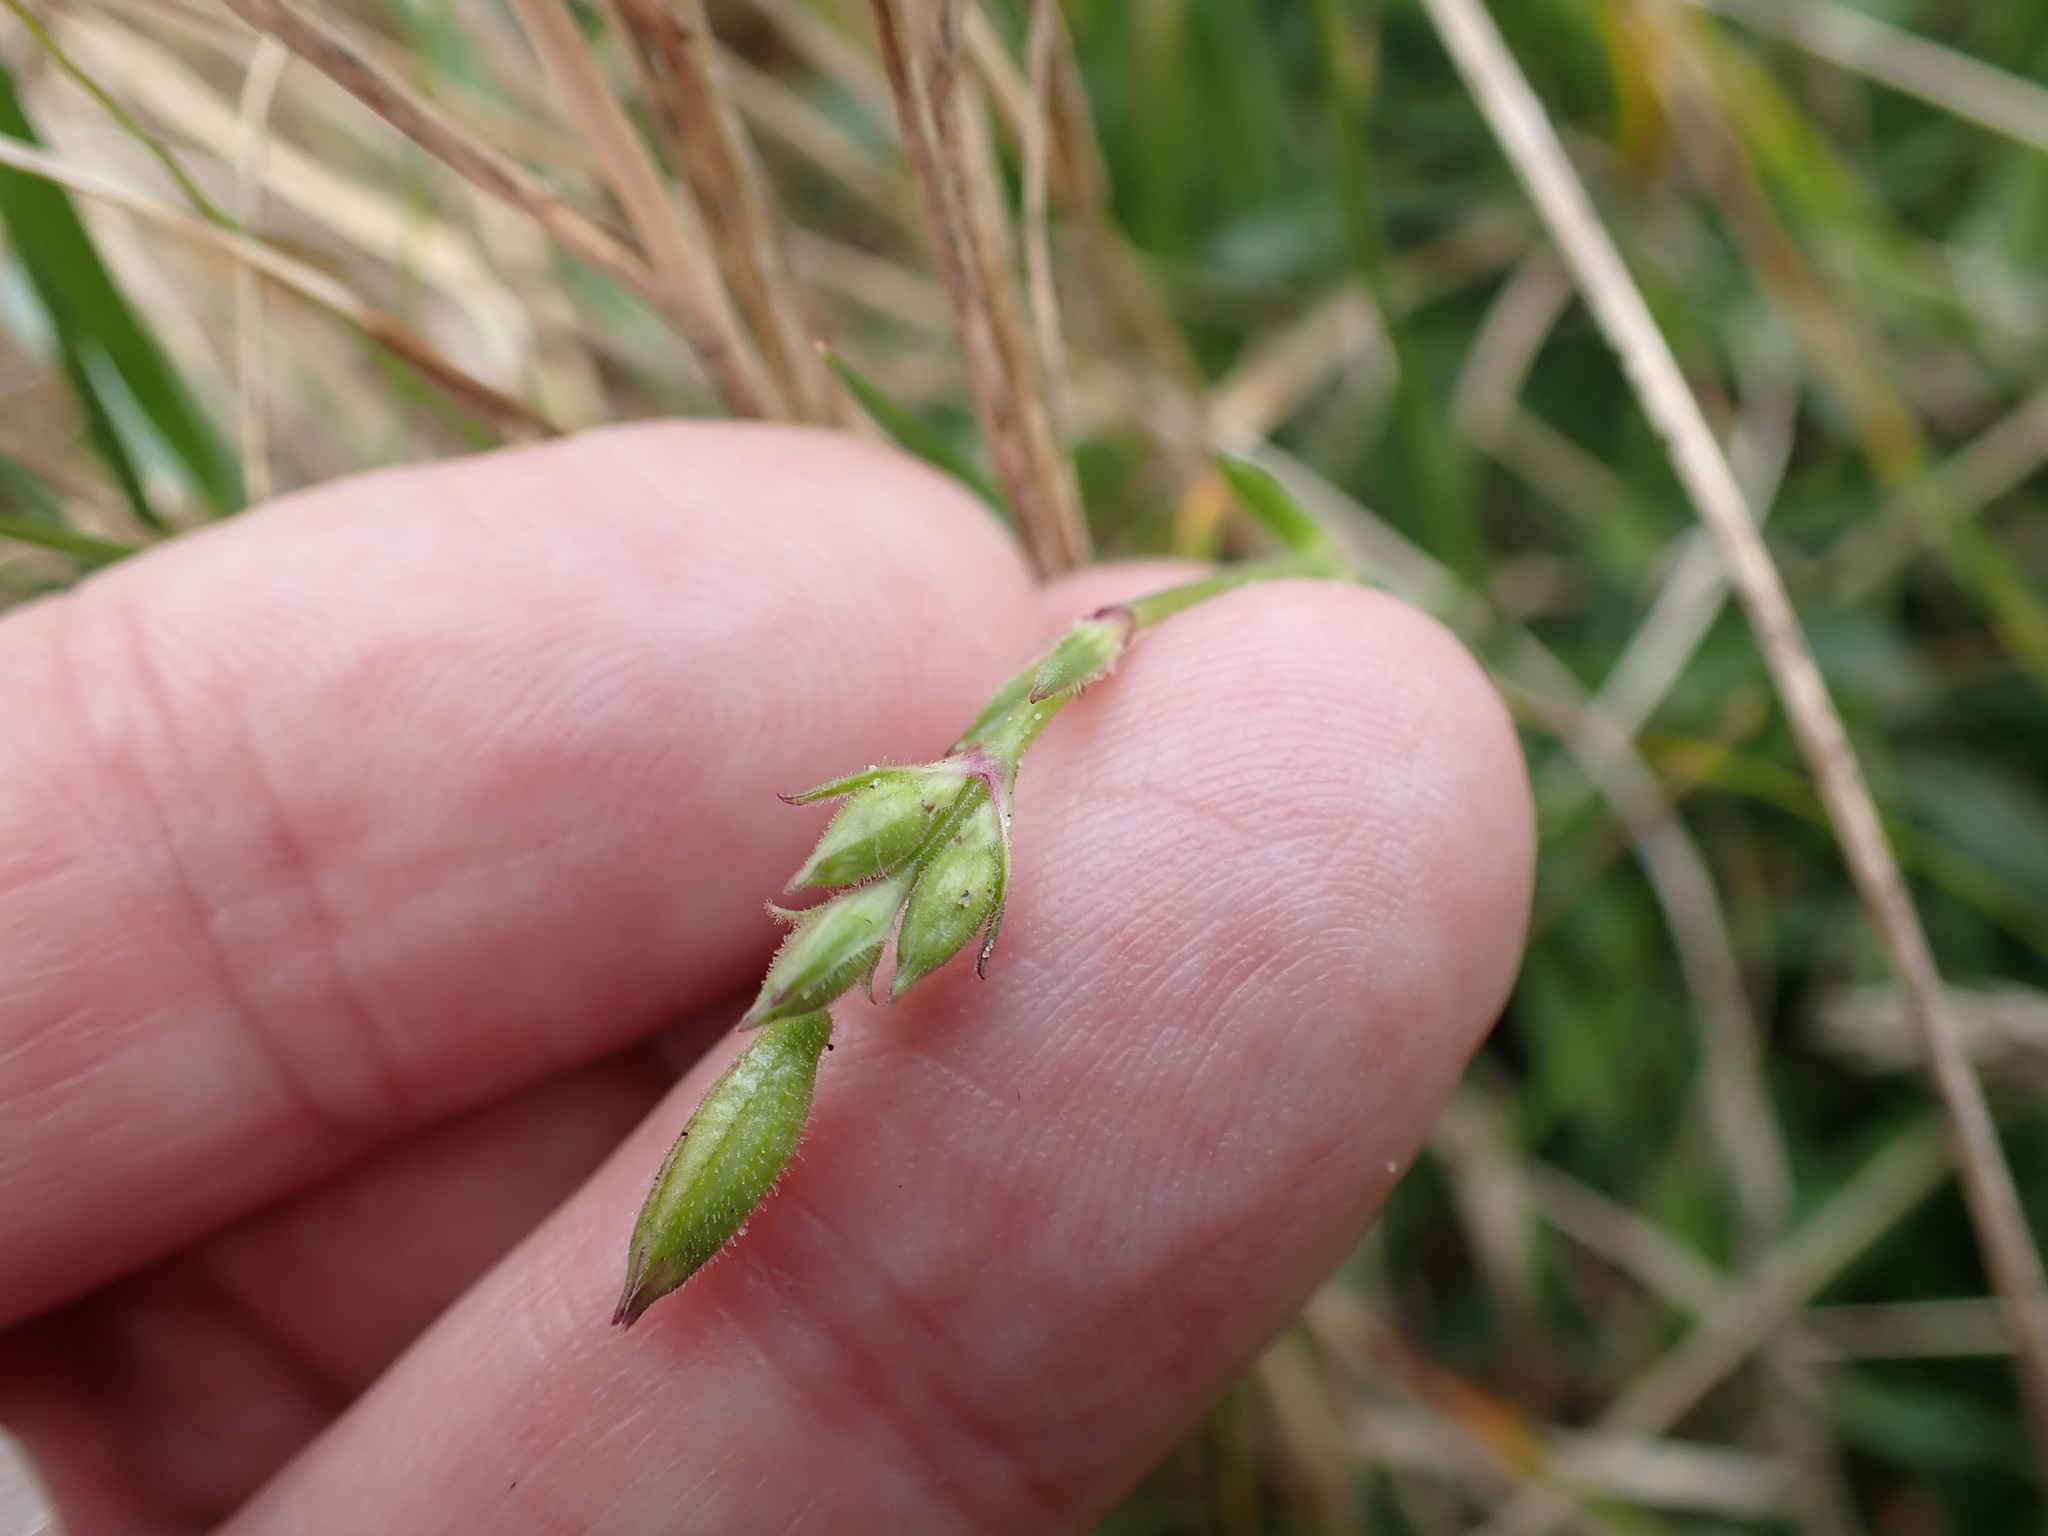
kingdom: Plantae
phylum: Tracheophyta
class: Magnoliopsida
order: Caryophyllales
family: Caryophyllaceae
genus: Silene
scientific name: Silene nutans
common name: Nottingham catchfly
